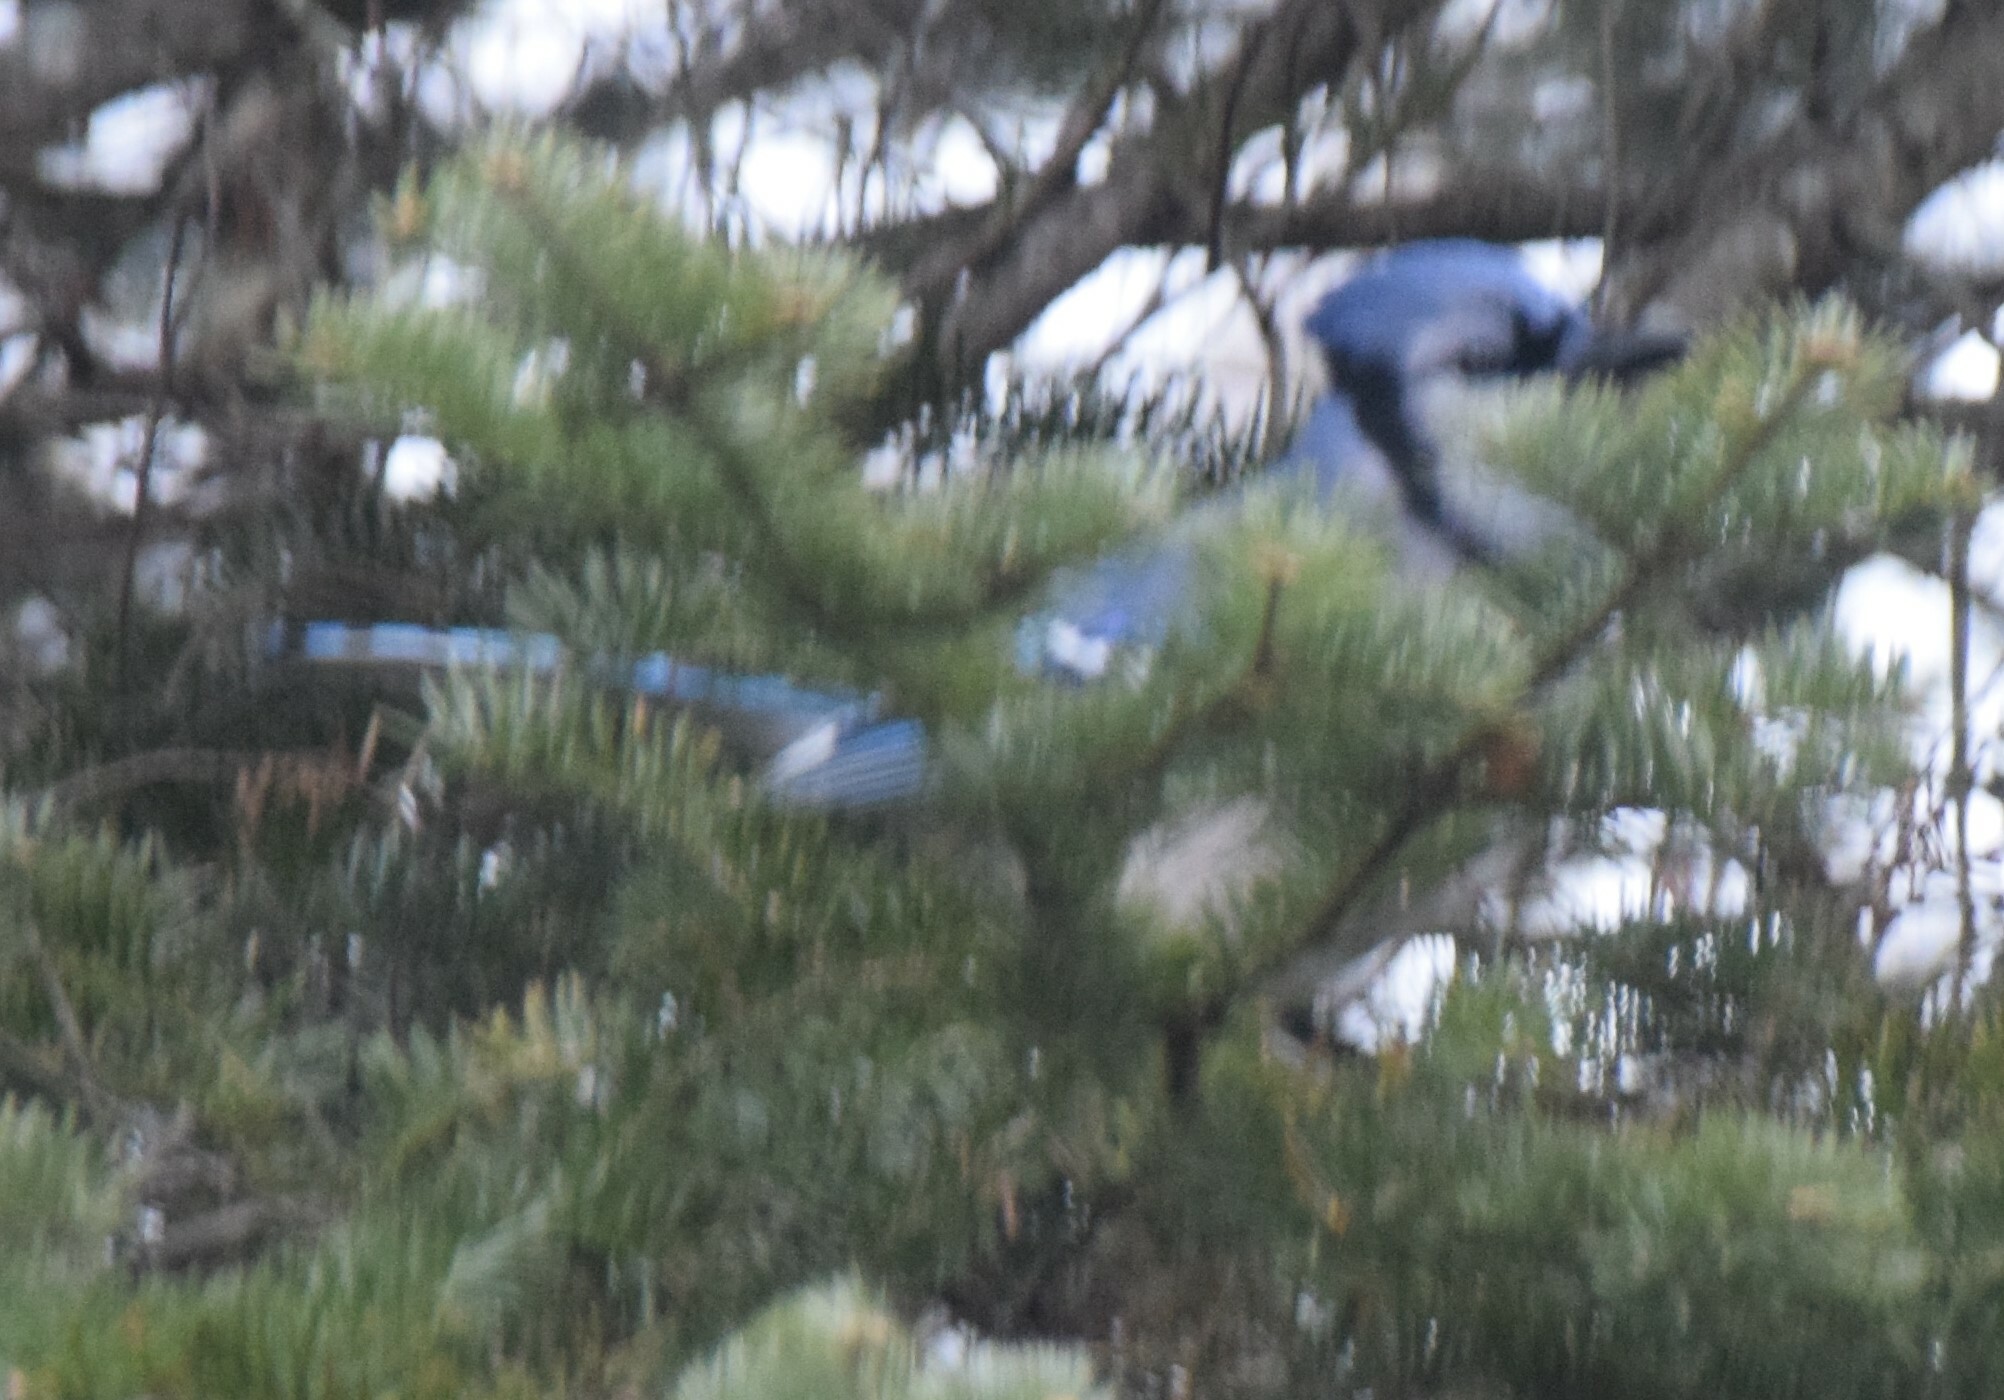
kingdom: Animalia
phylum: Chordata
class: Aves
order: Passeriformes
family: Corvidae
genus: Cyanocitta
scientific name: Cyanocitta cristata
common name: Blue jay
